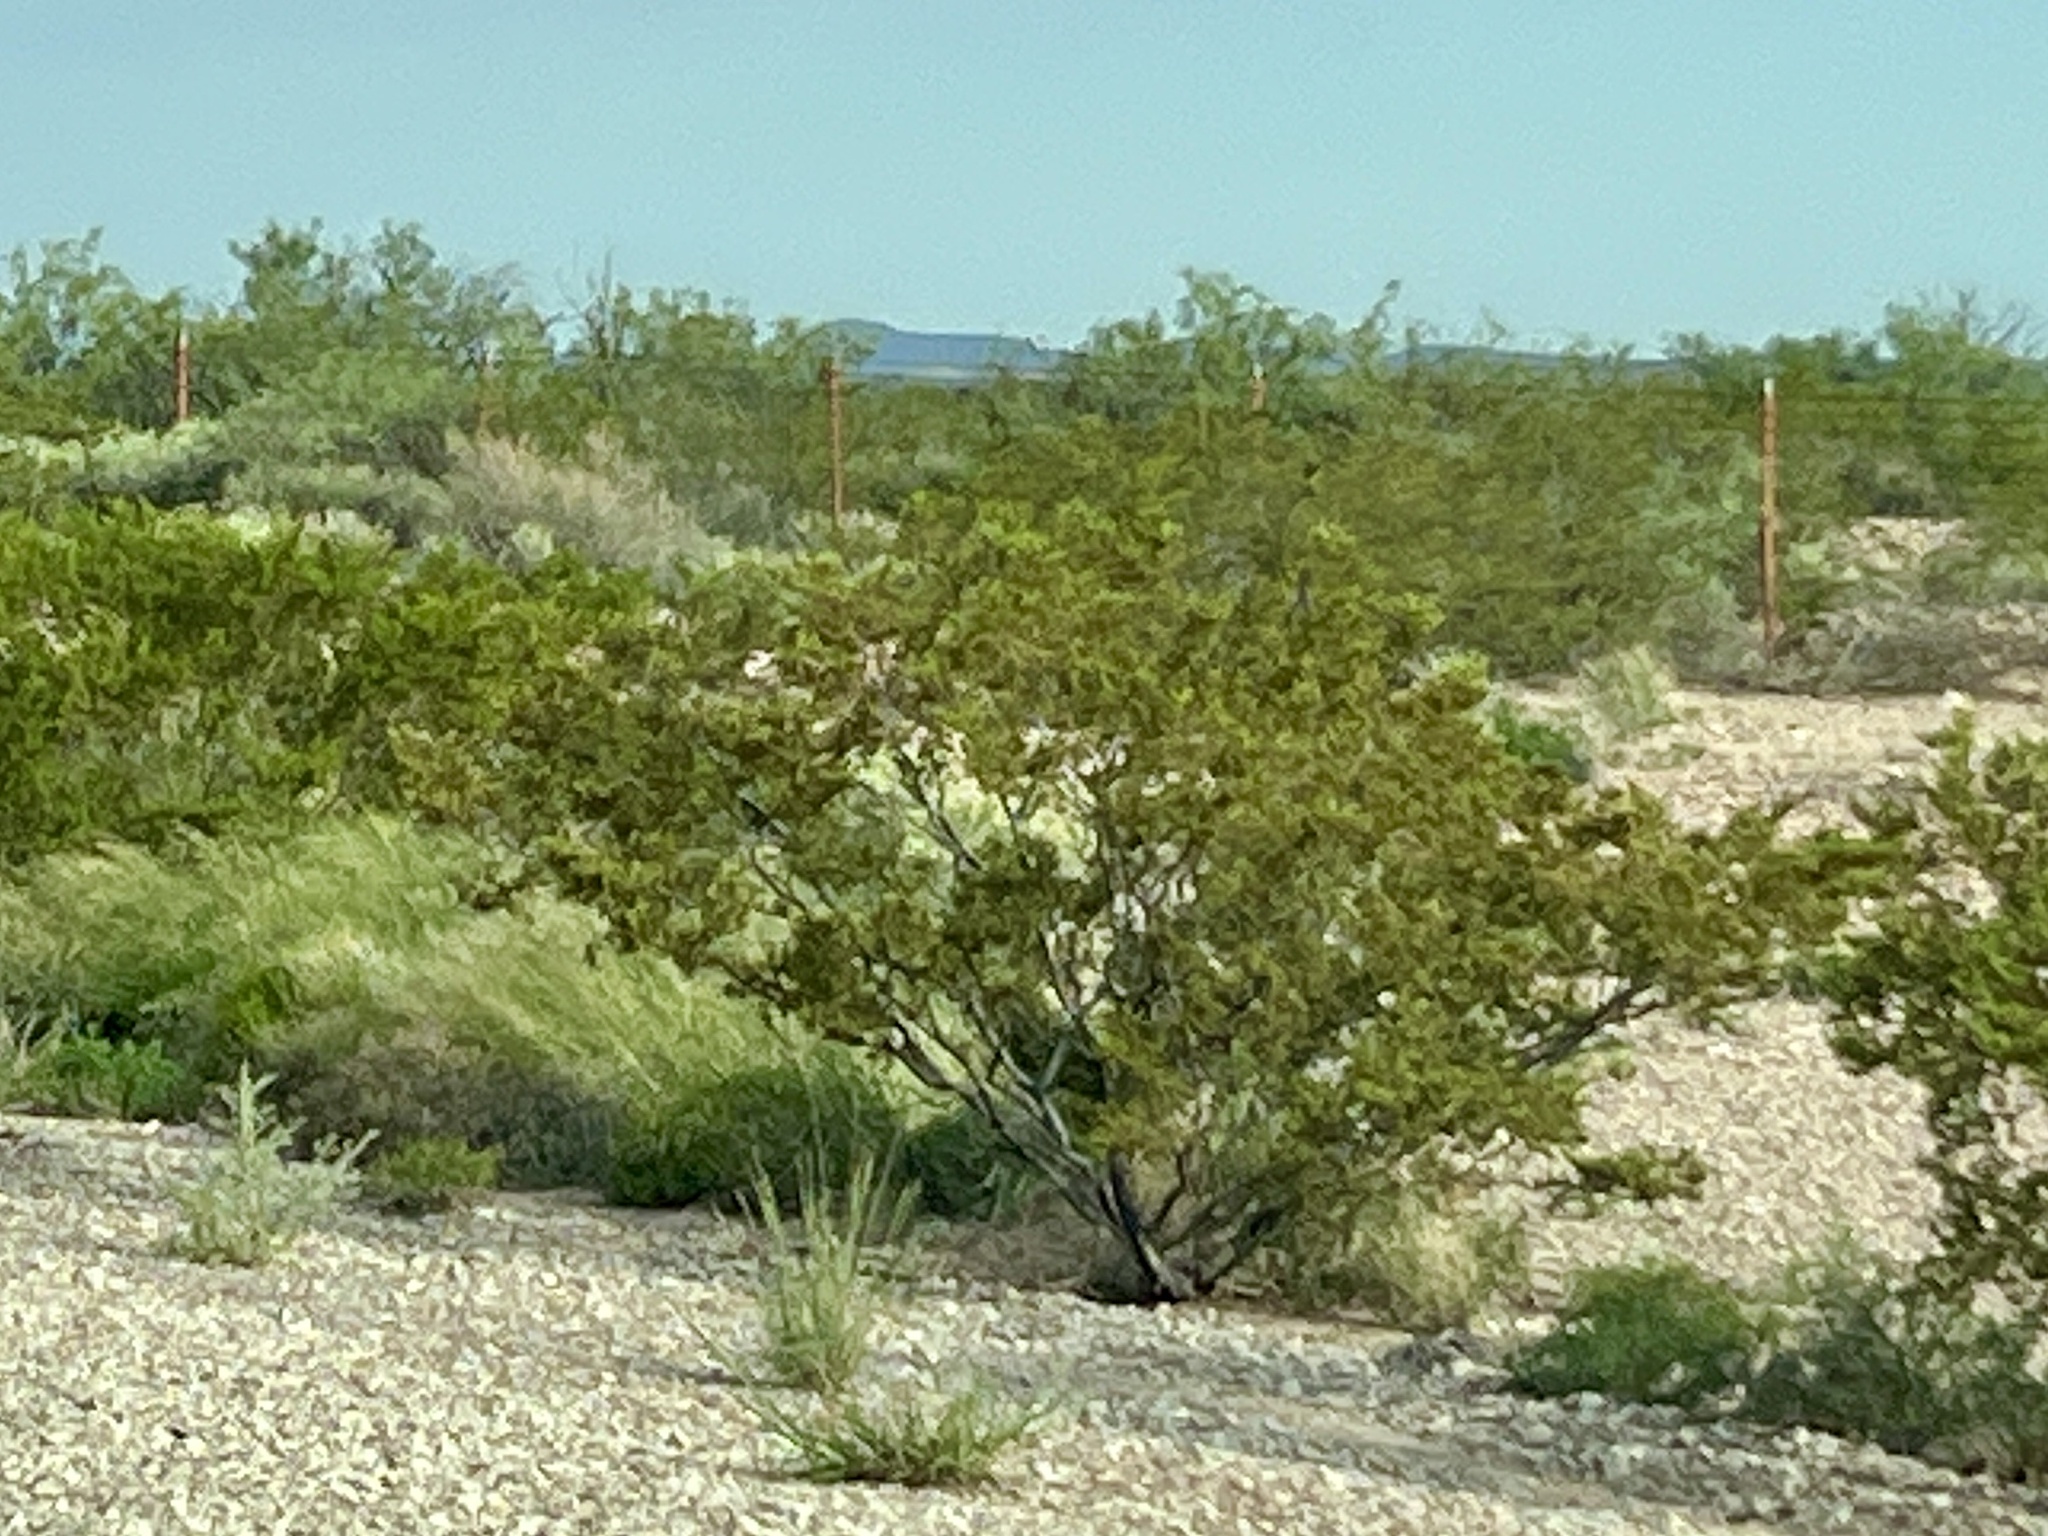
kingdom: Plantae
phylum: Tracheophyta
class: Magnoliopsida
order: Zygophyllales
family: Zygophyllaceae
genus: Larrea
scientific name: Larrea tridentata
